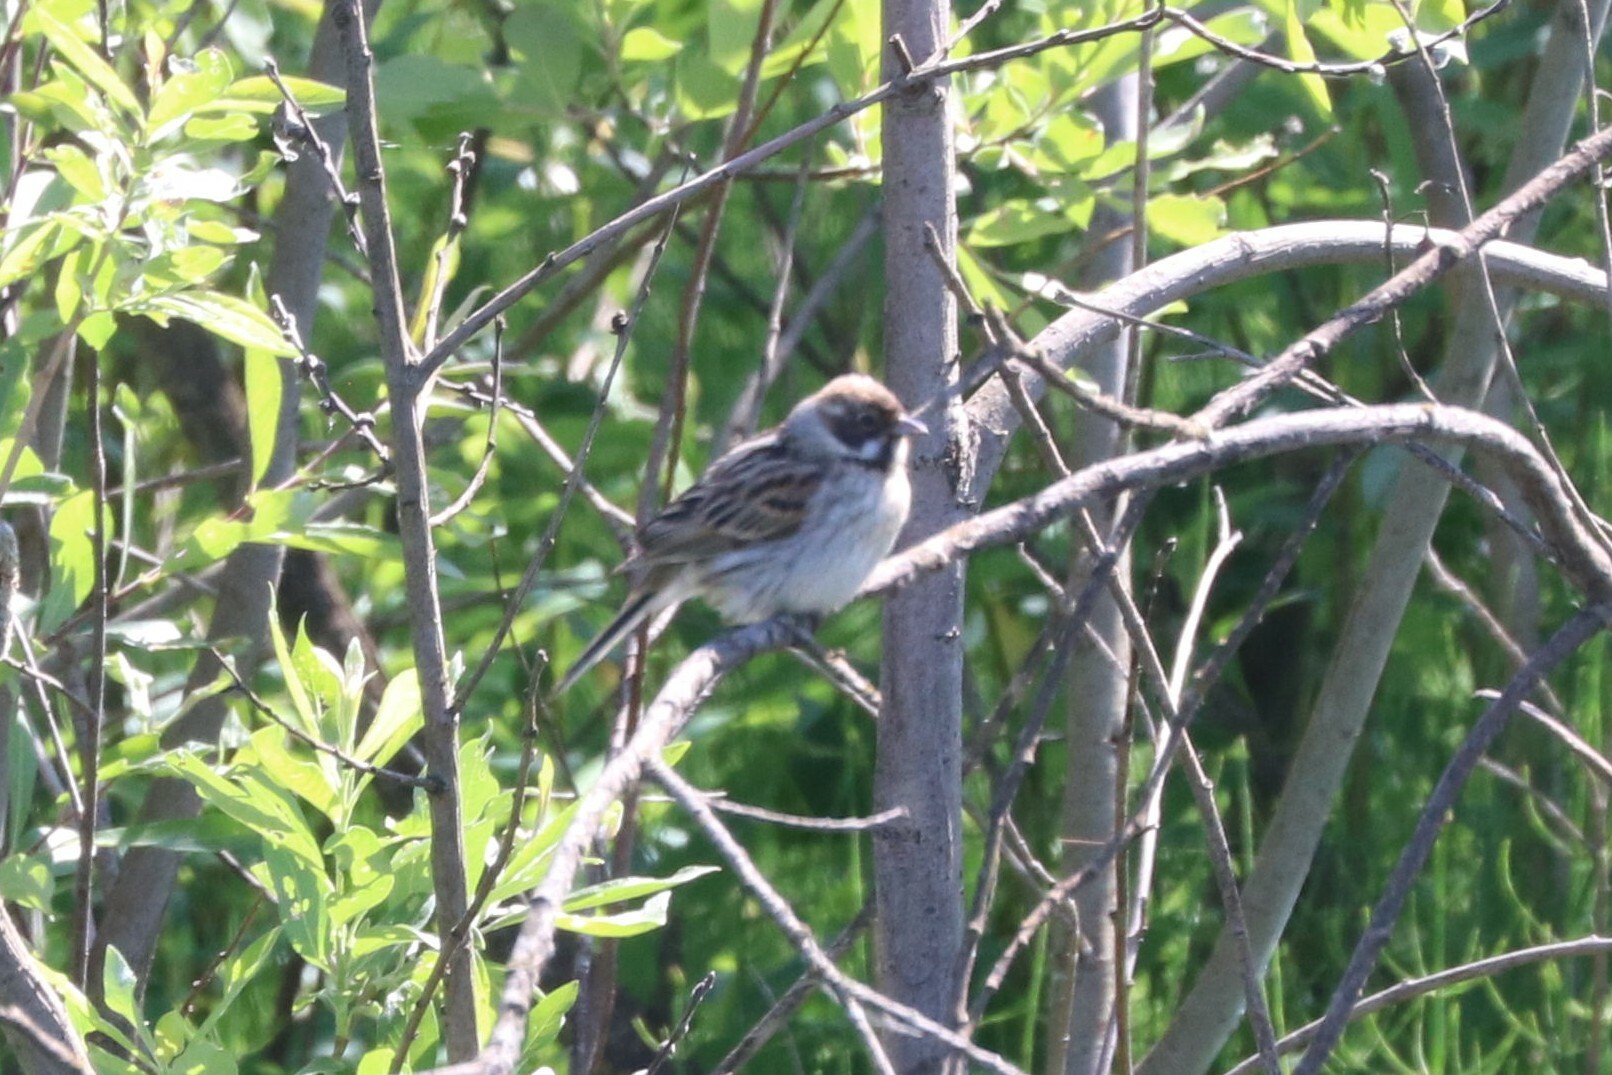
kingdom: Animalia
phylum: Chordata
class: Aves
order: Passeriformes
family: Emberizidae
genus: Emberiza
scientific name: Emberiza schoeniclus
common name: Reed bunting
